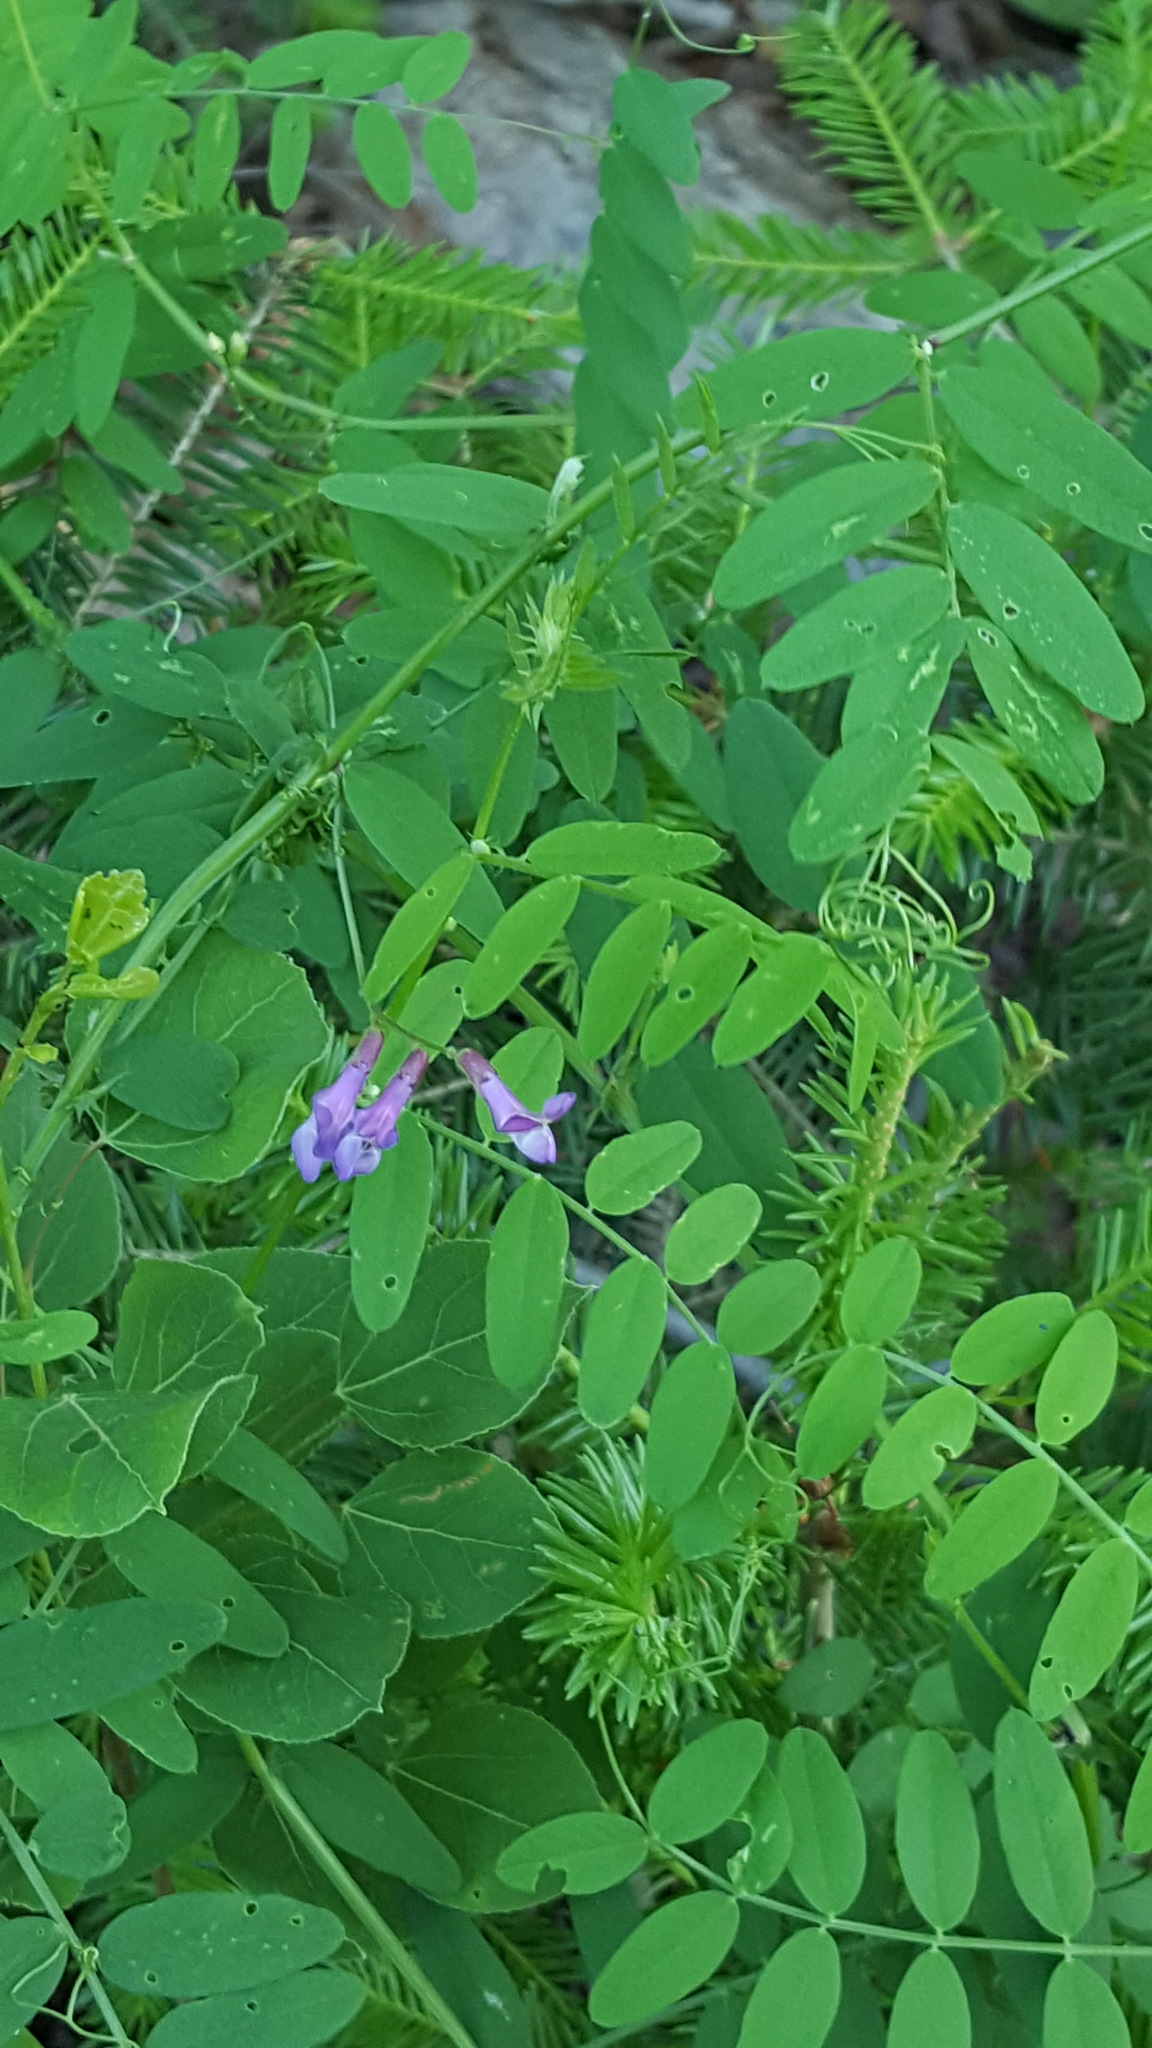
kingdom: Plantae
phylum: Tracheophyta
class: Magnoliopsida
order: Fabales
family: Fabaceae
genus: Vicia
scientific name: Vicia americana
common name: American vetch
